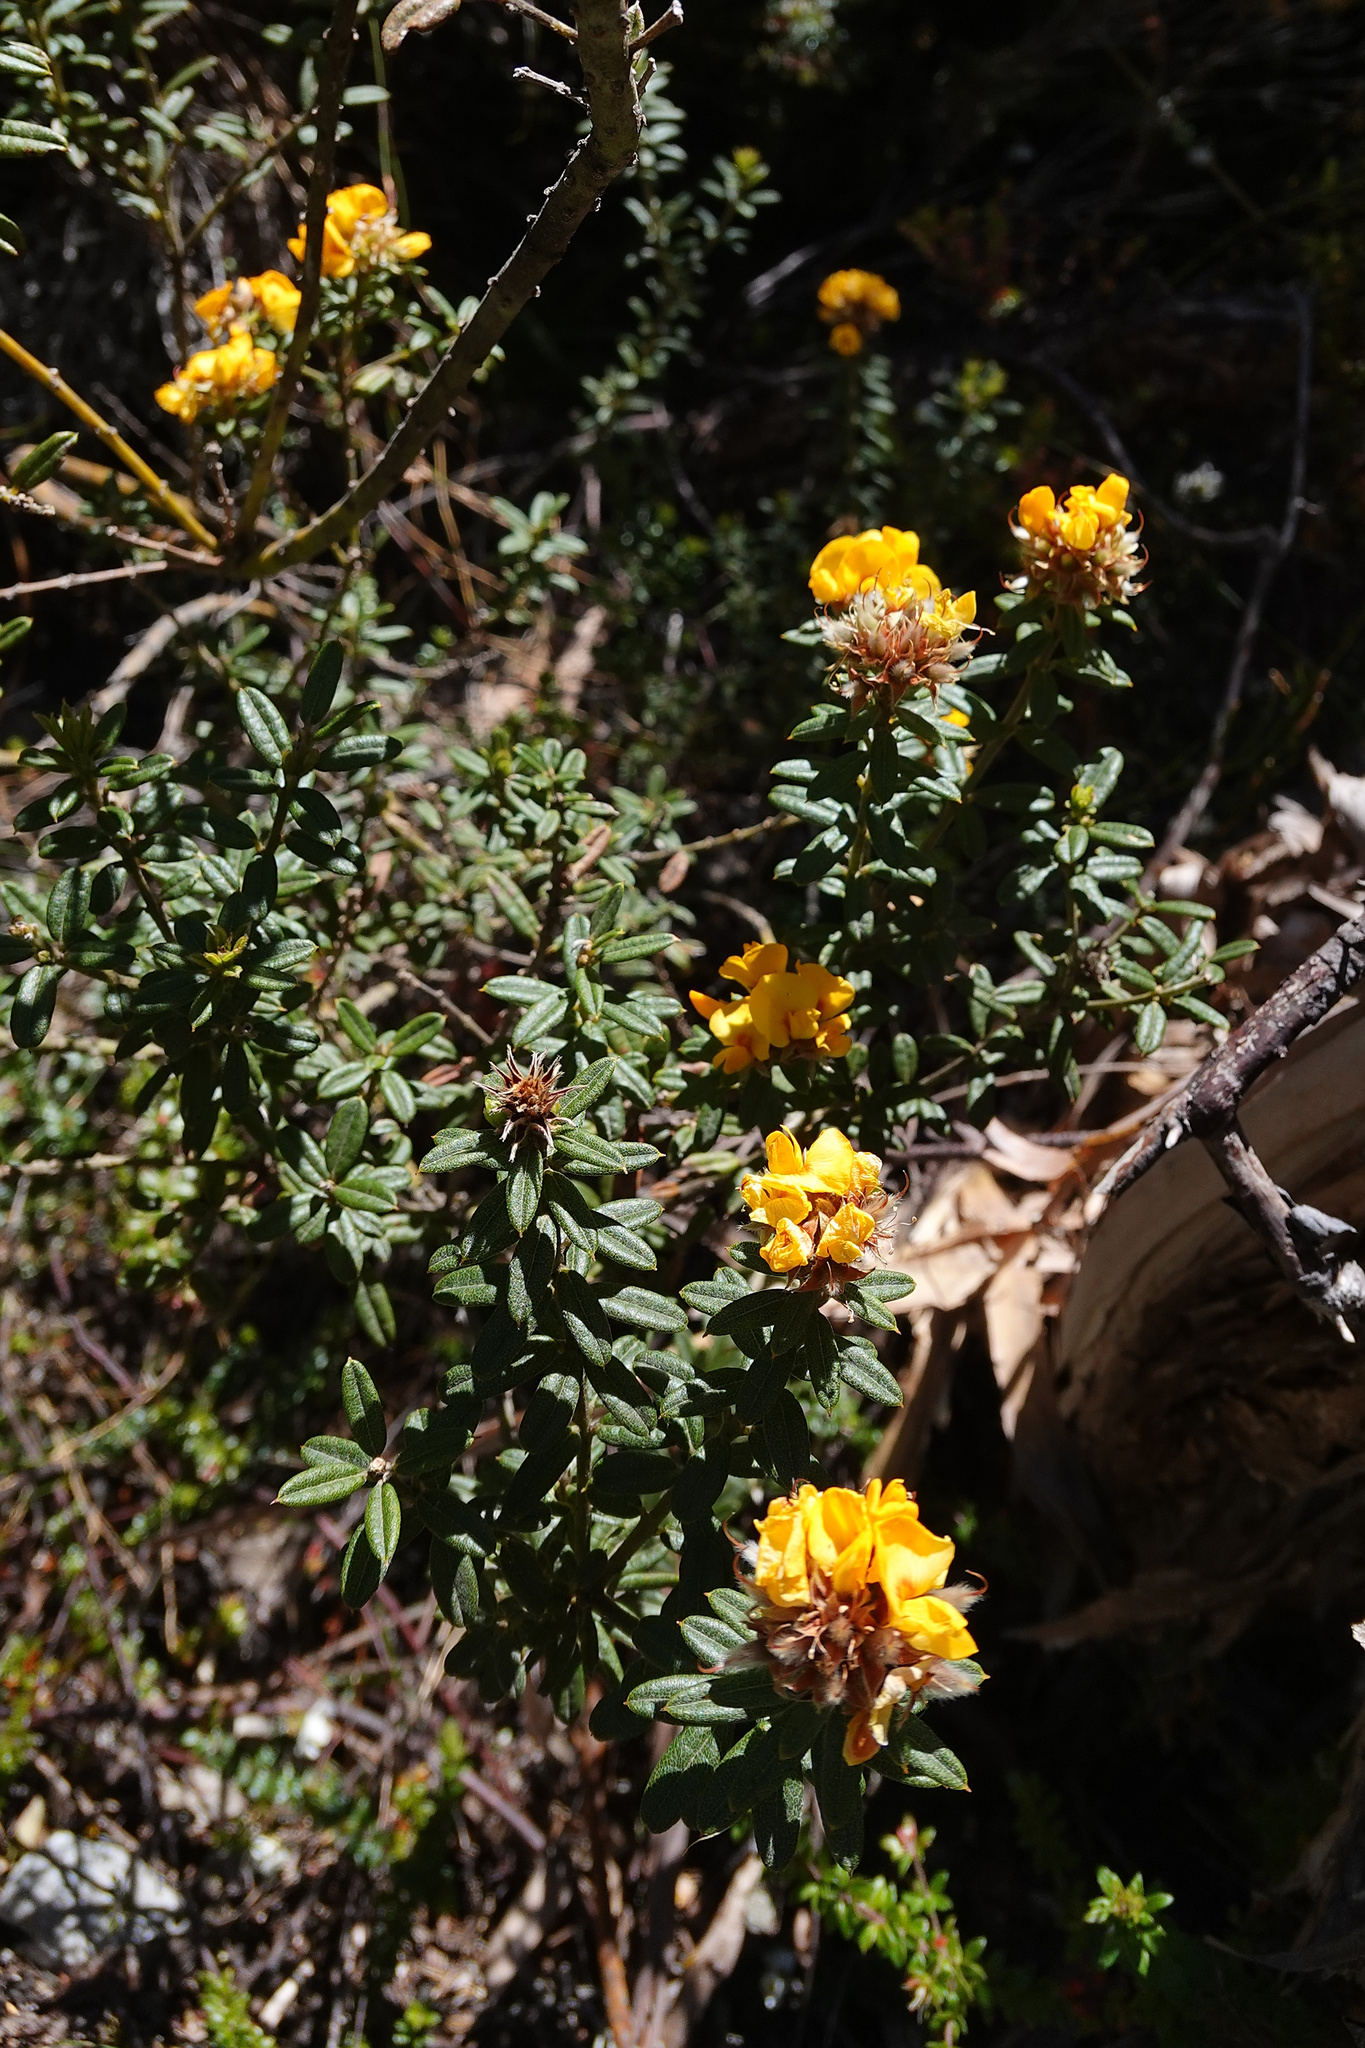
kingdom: Plantae
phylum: Tracheophyta
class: Magnoliopsida
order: Fabales
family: Fabaceae
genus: Oxylobium
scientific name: Oxylobium ellipticum
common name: Golden shaggy-pea
